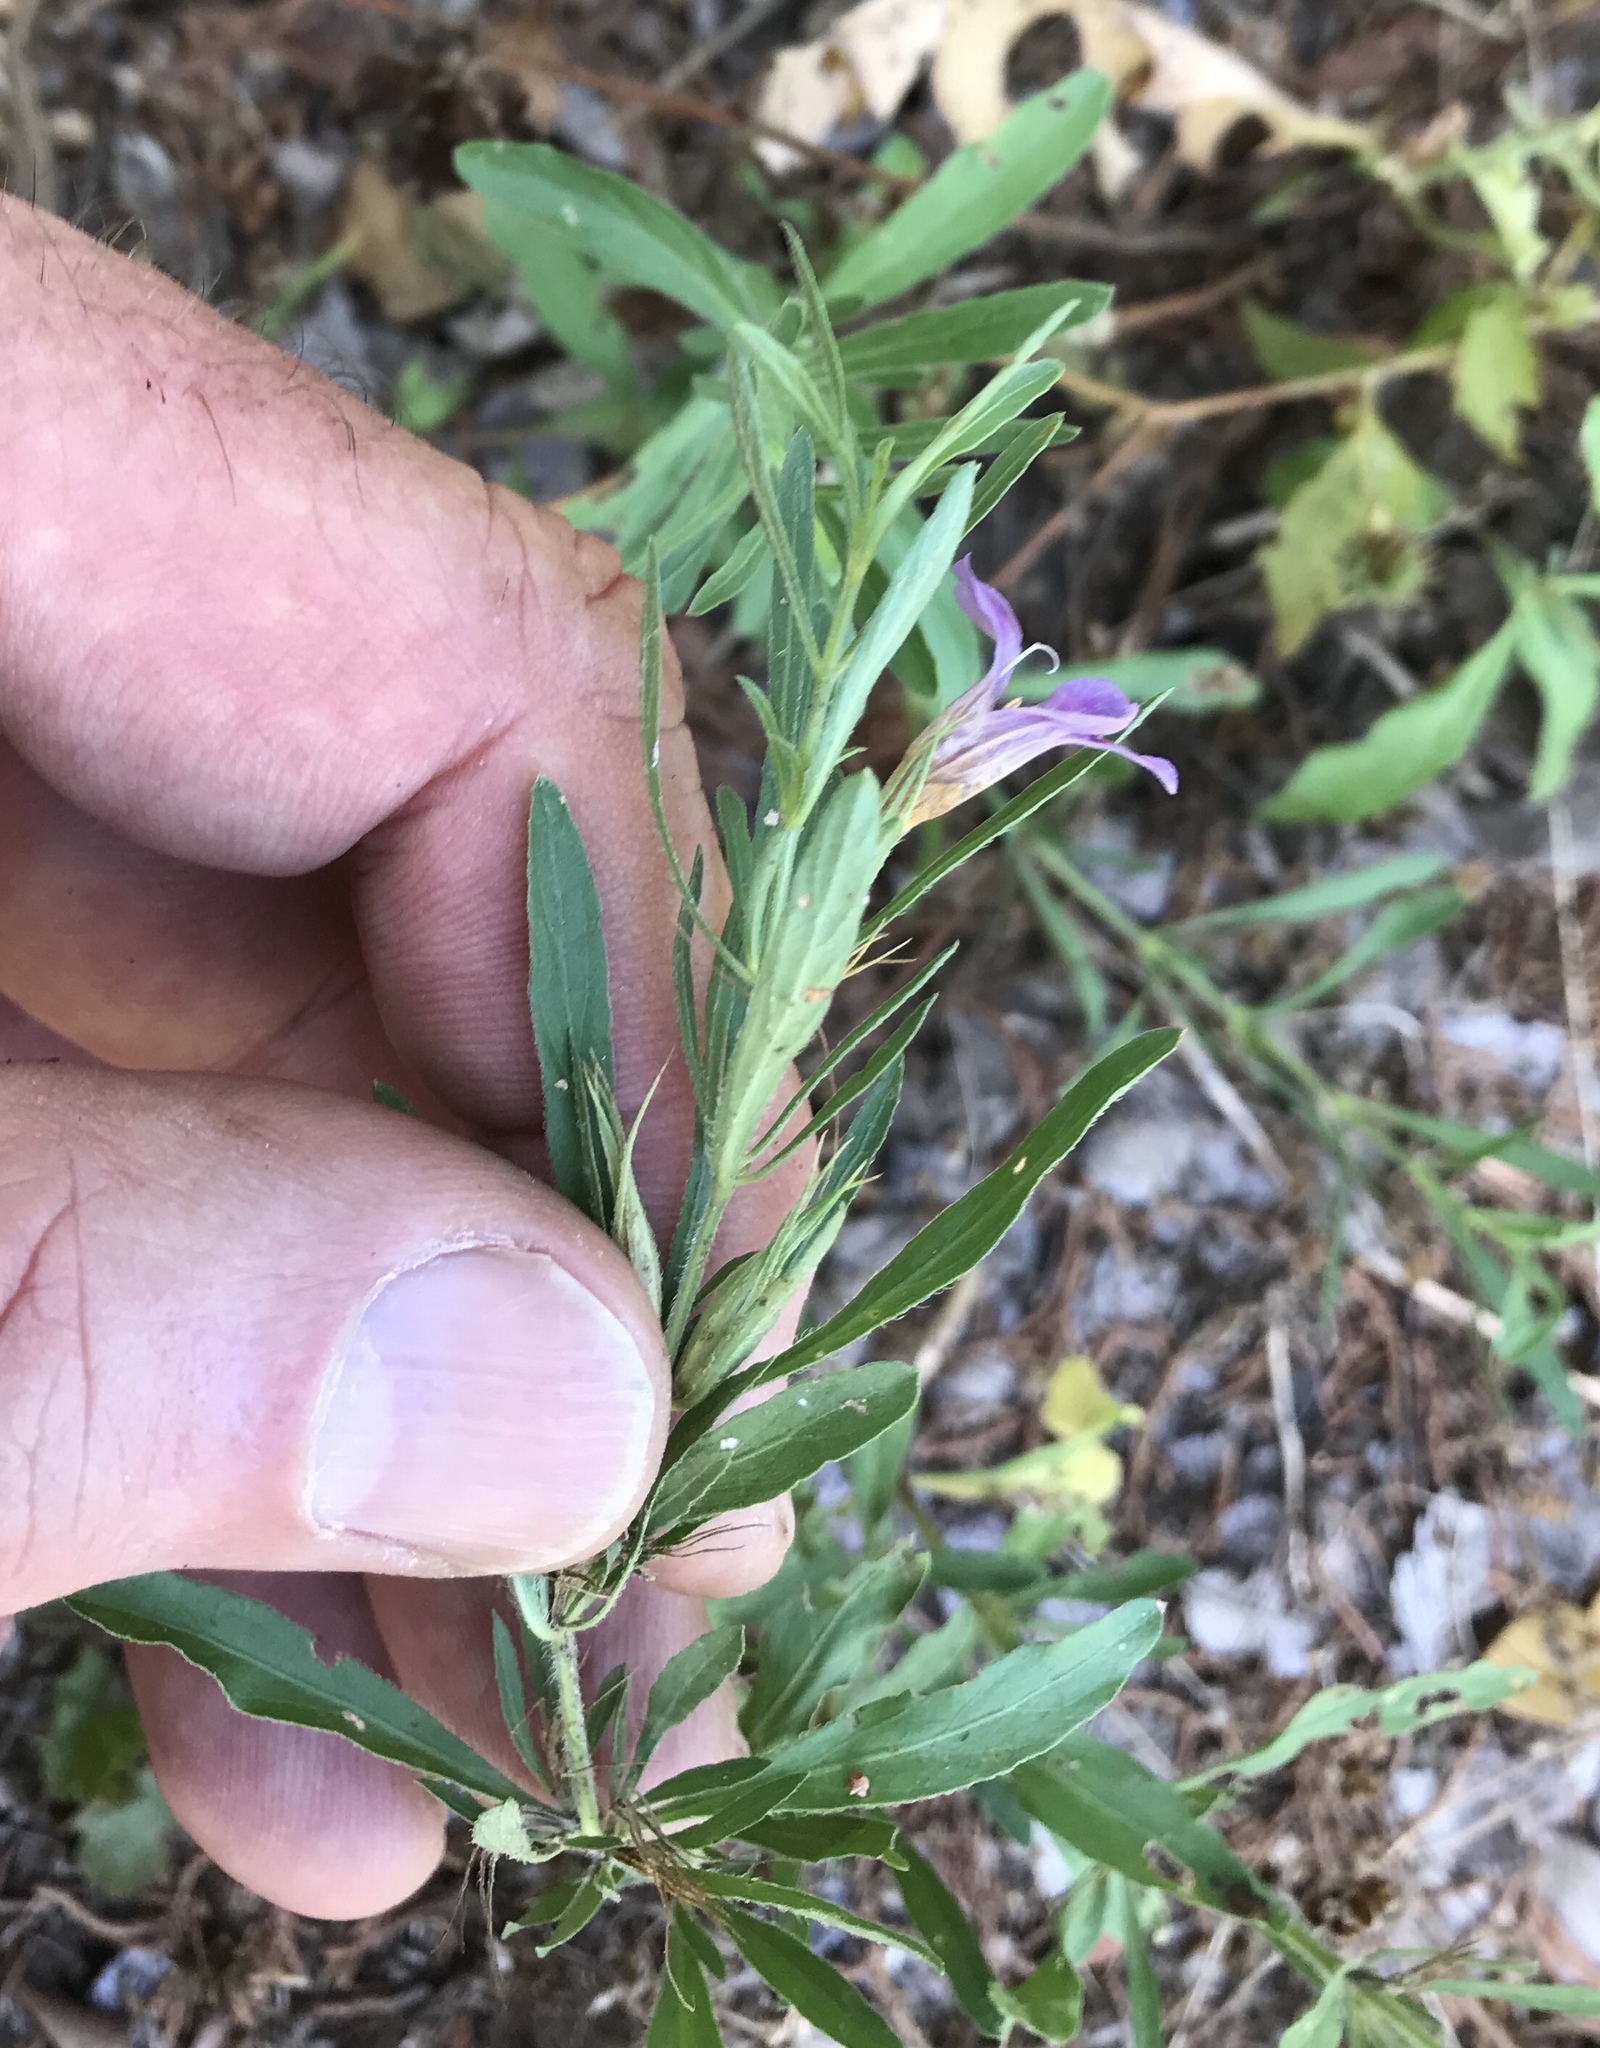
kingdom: Plantae
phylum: Tracheophyta
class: Magnoliopsida
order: Lamiales
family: Acanthaceae
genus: Dyschoriste
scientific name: Dyschoriste linearis
